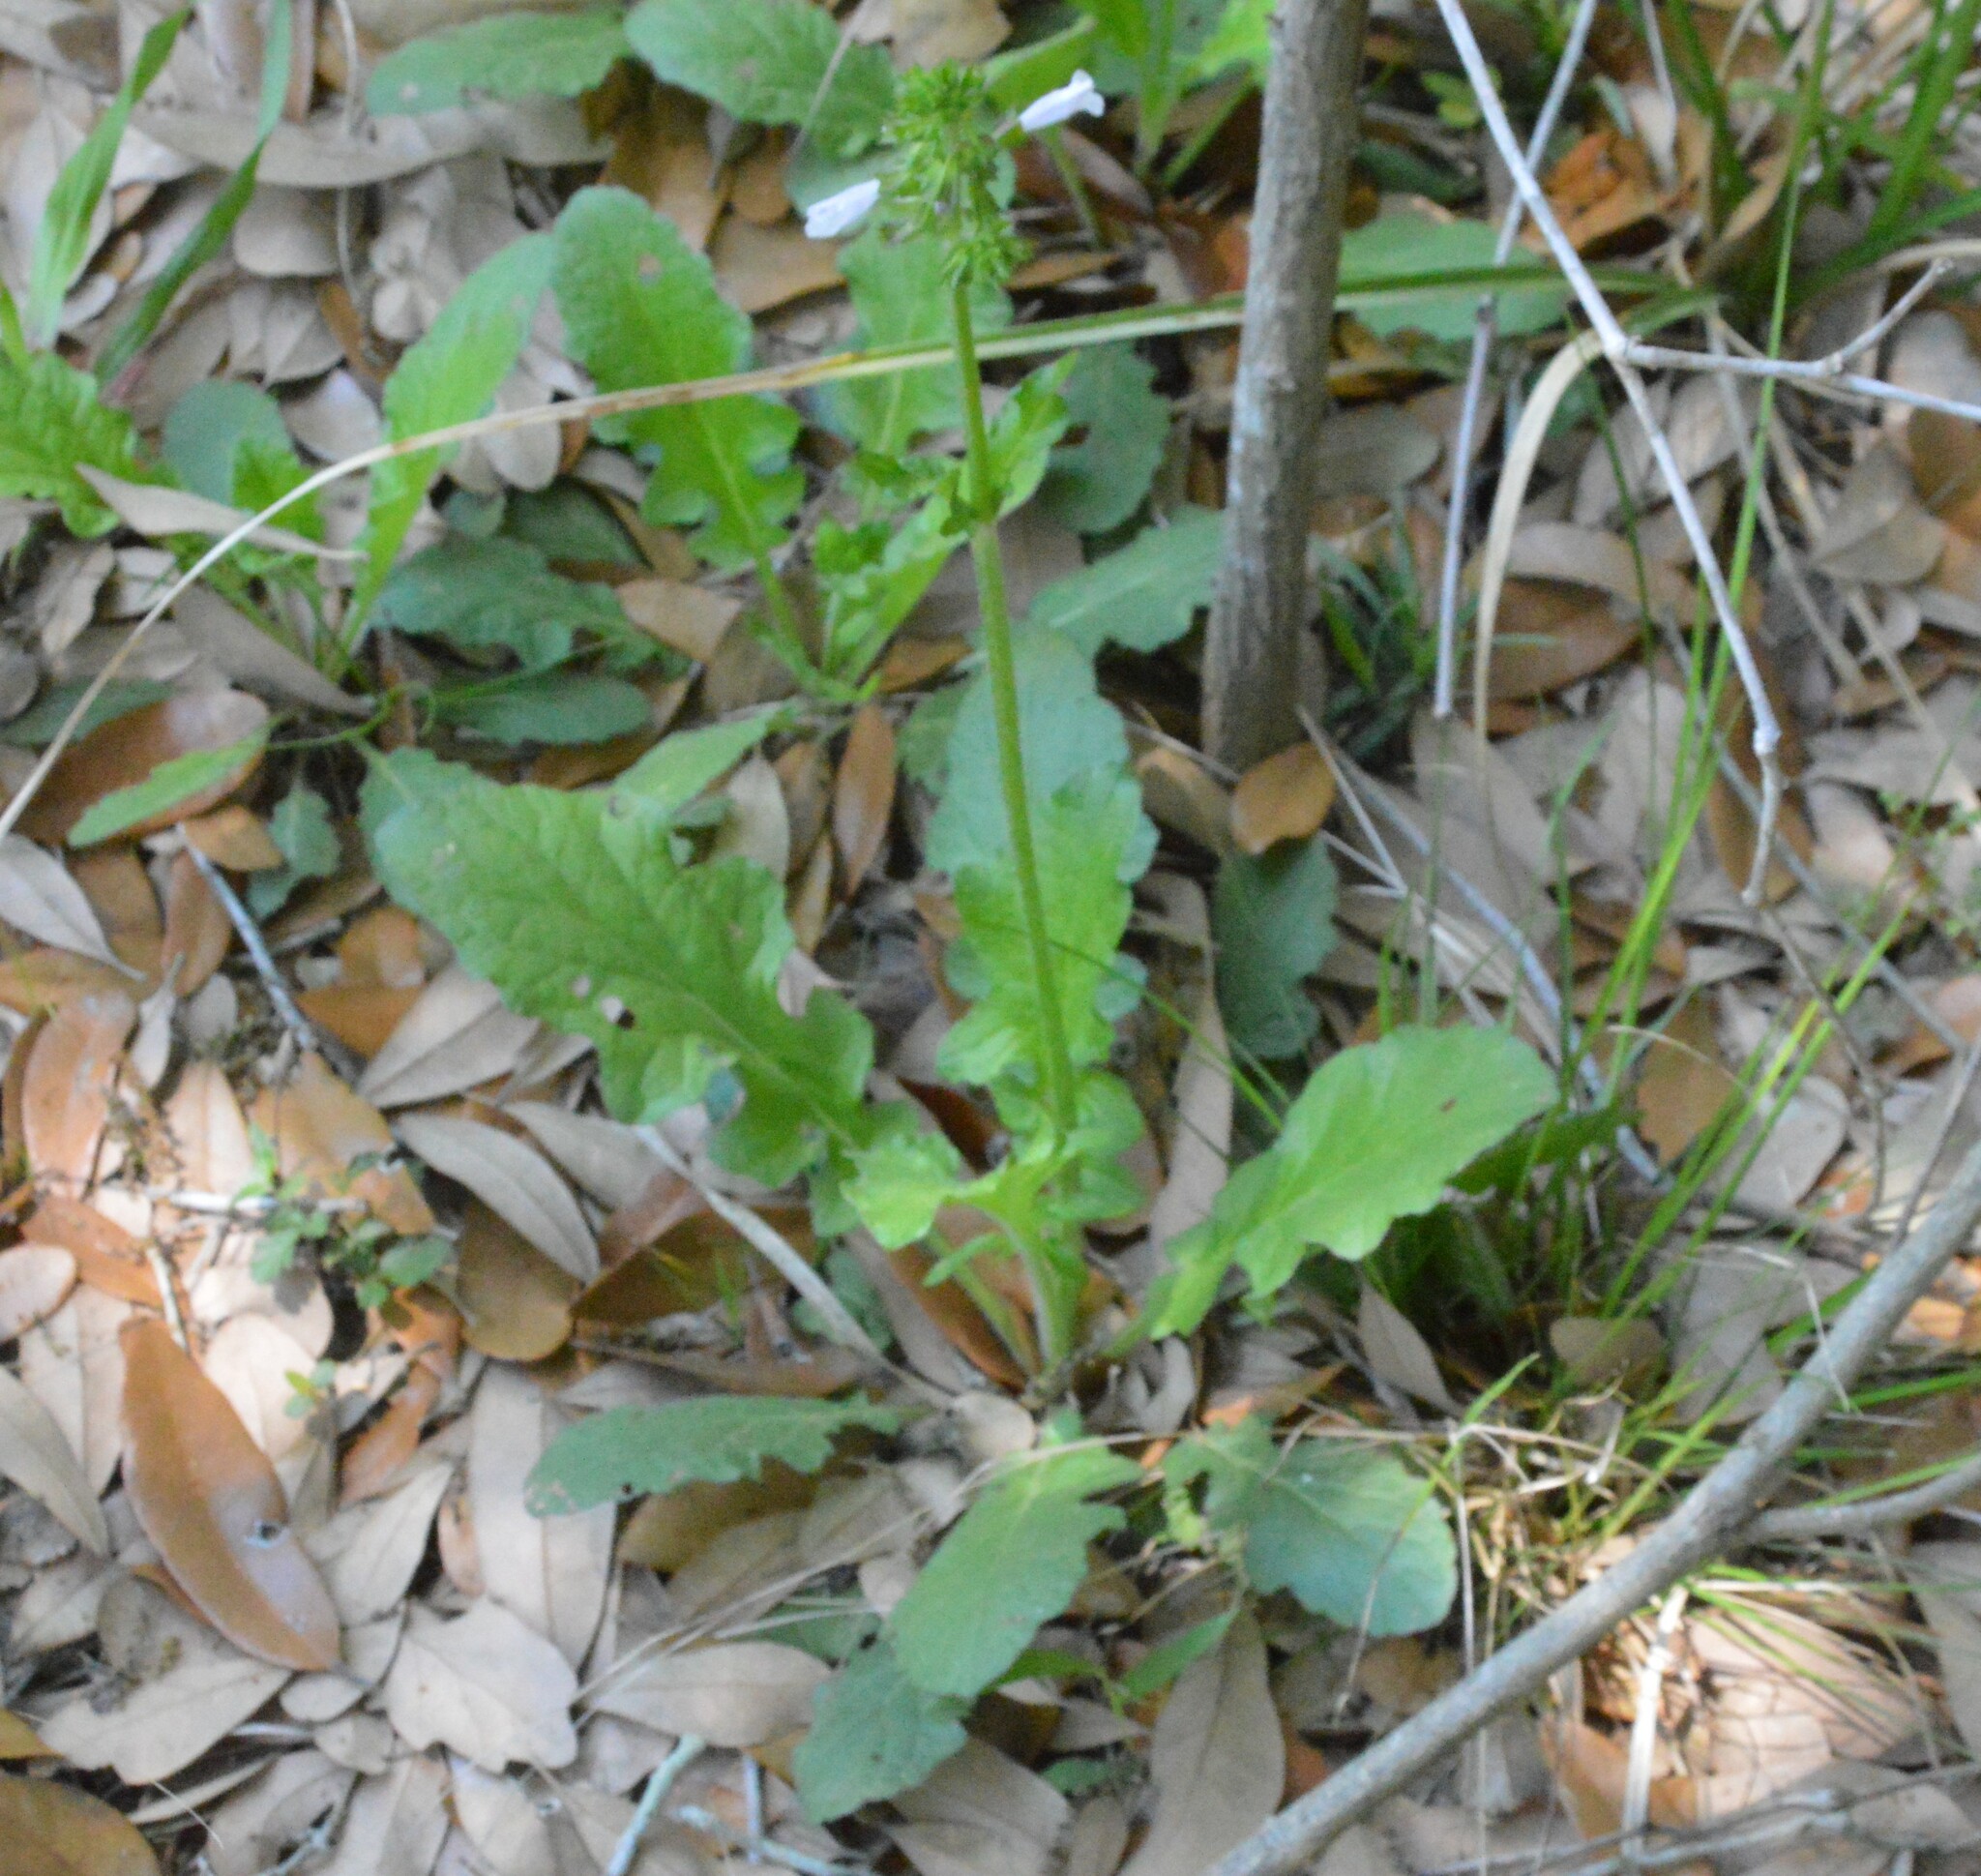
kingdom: Plantae
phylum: Tracheophyta
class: Magnoliopsida
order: Lamiales
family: Lamiaceae
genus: Salvia
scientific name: Salvia lyrata
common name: Cancerweed
